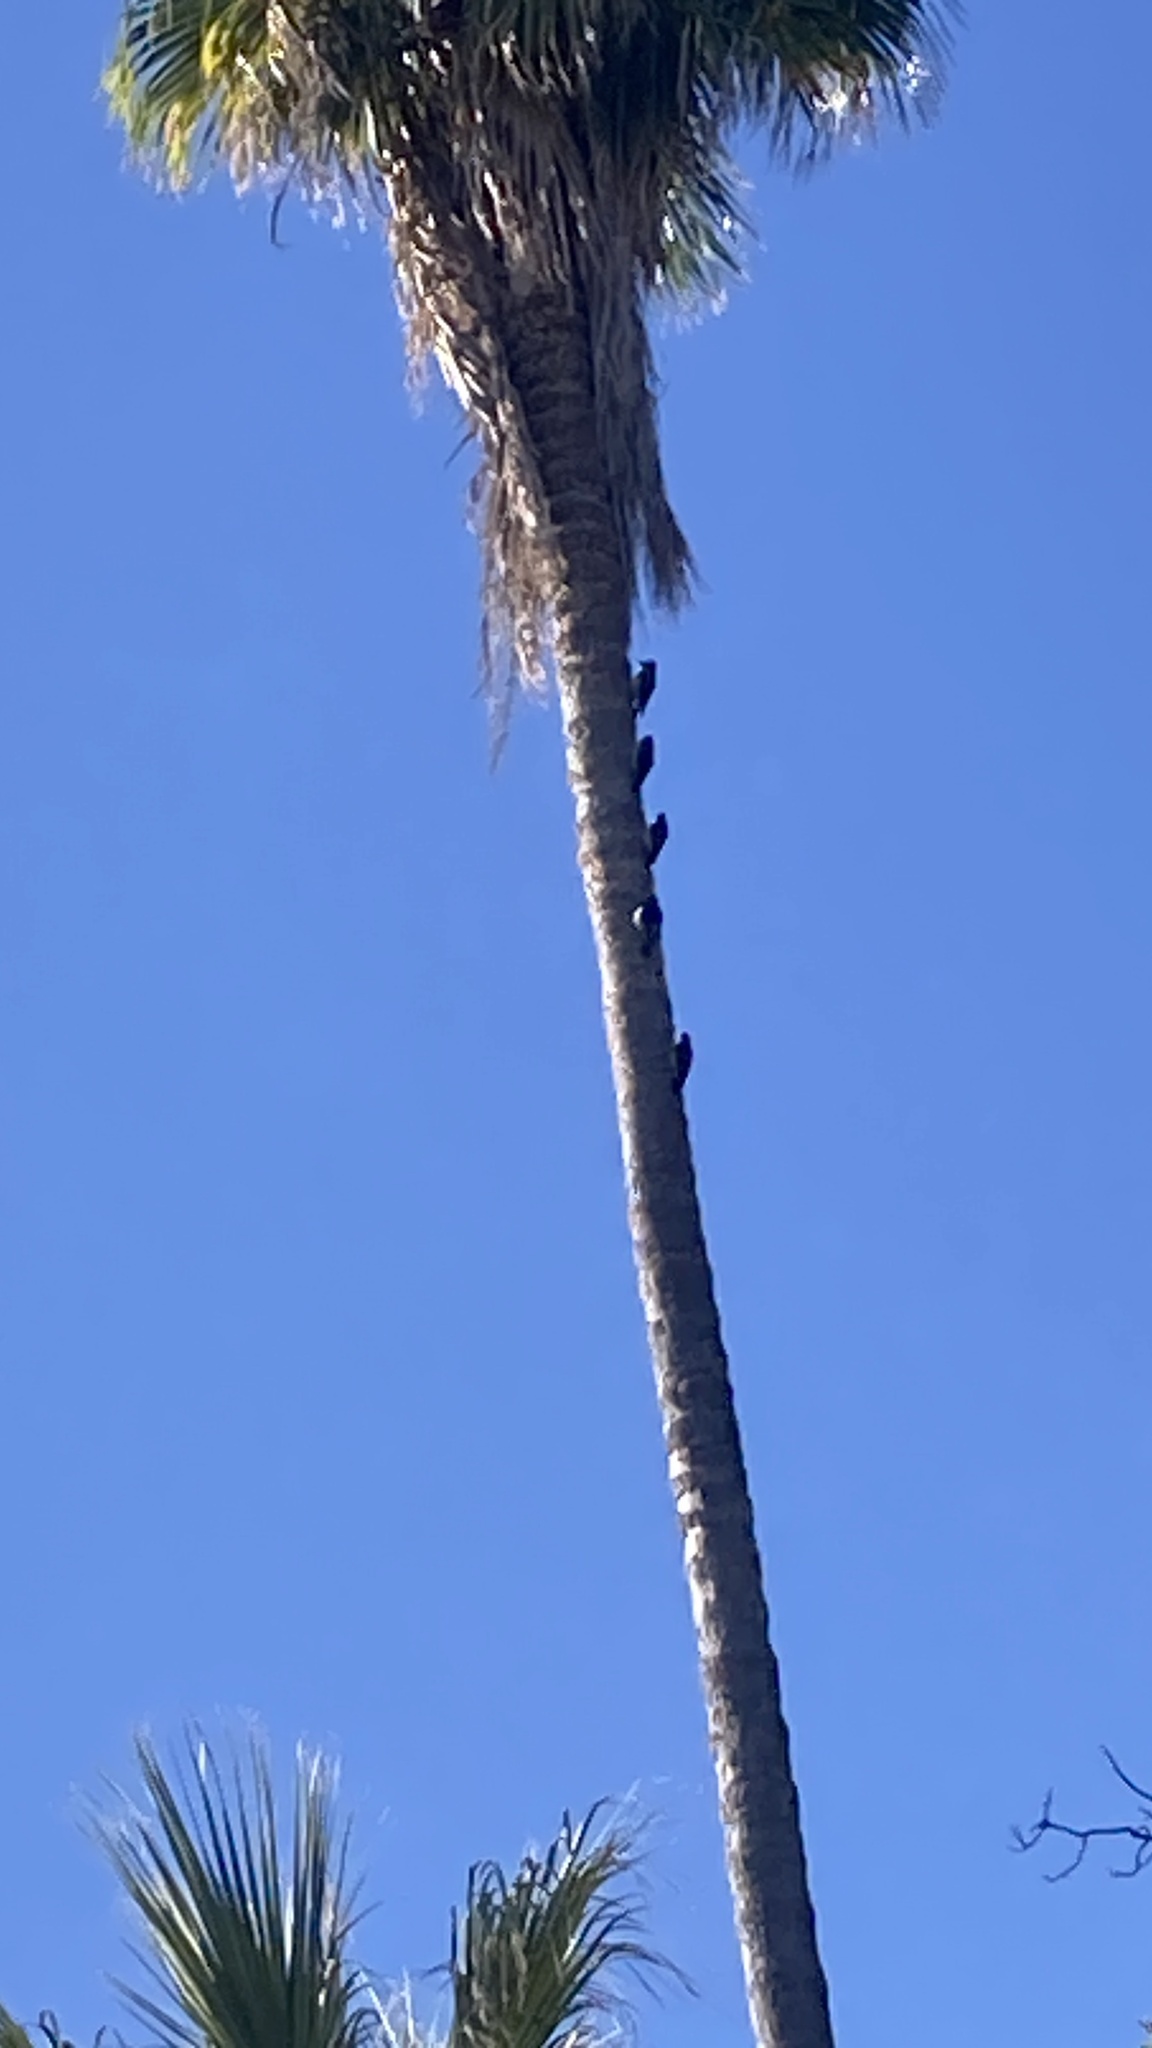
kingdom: Animalia
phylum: Chordata
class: Aves
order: Piciformes
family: Picidae
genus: Melanerpes
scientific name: Melanerpes formicivorus
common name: Acorn woodpecker
